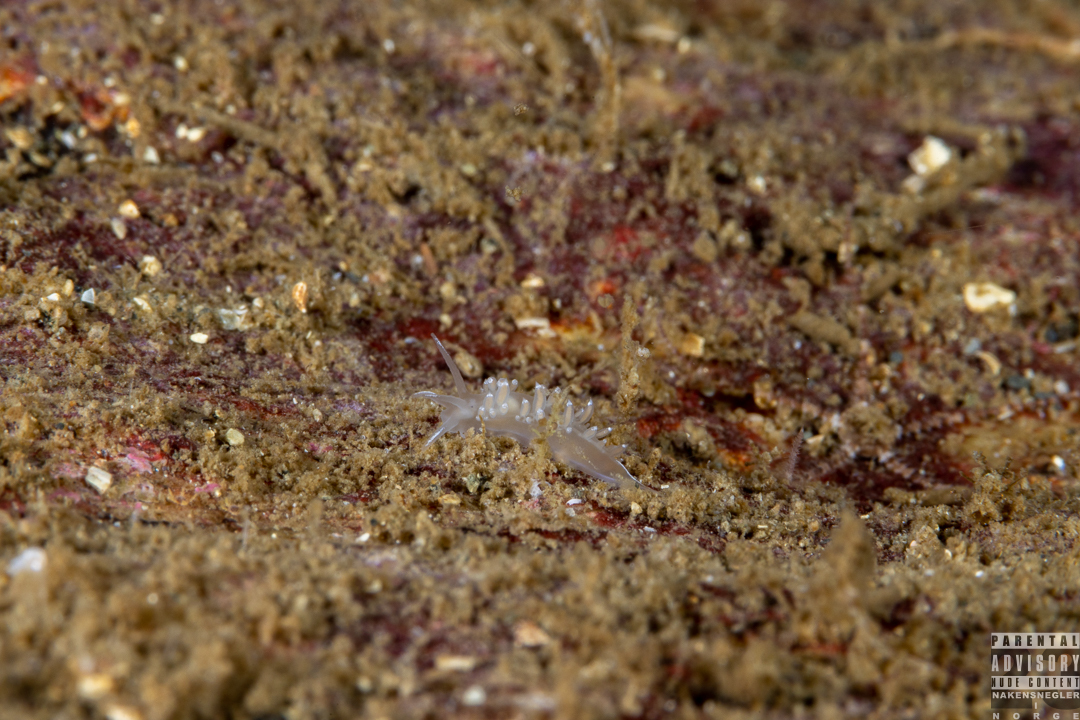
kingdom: Animalia
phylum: Mollusca
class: Gastropoda
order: Nudibranchia
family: Coryphellidae
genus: Coryphella
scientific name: Coryphella verrucosa
